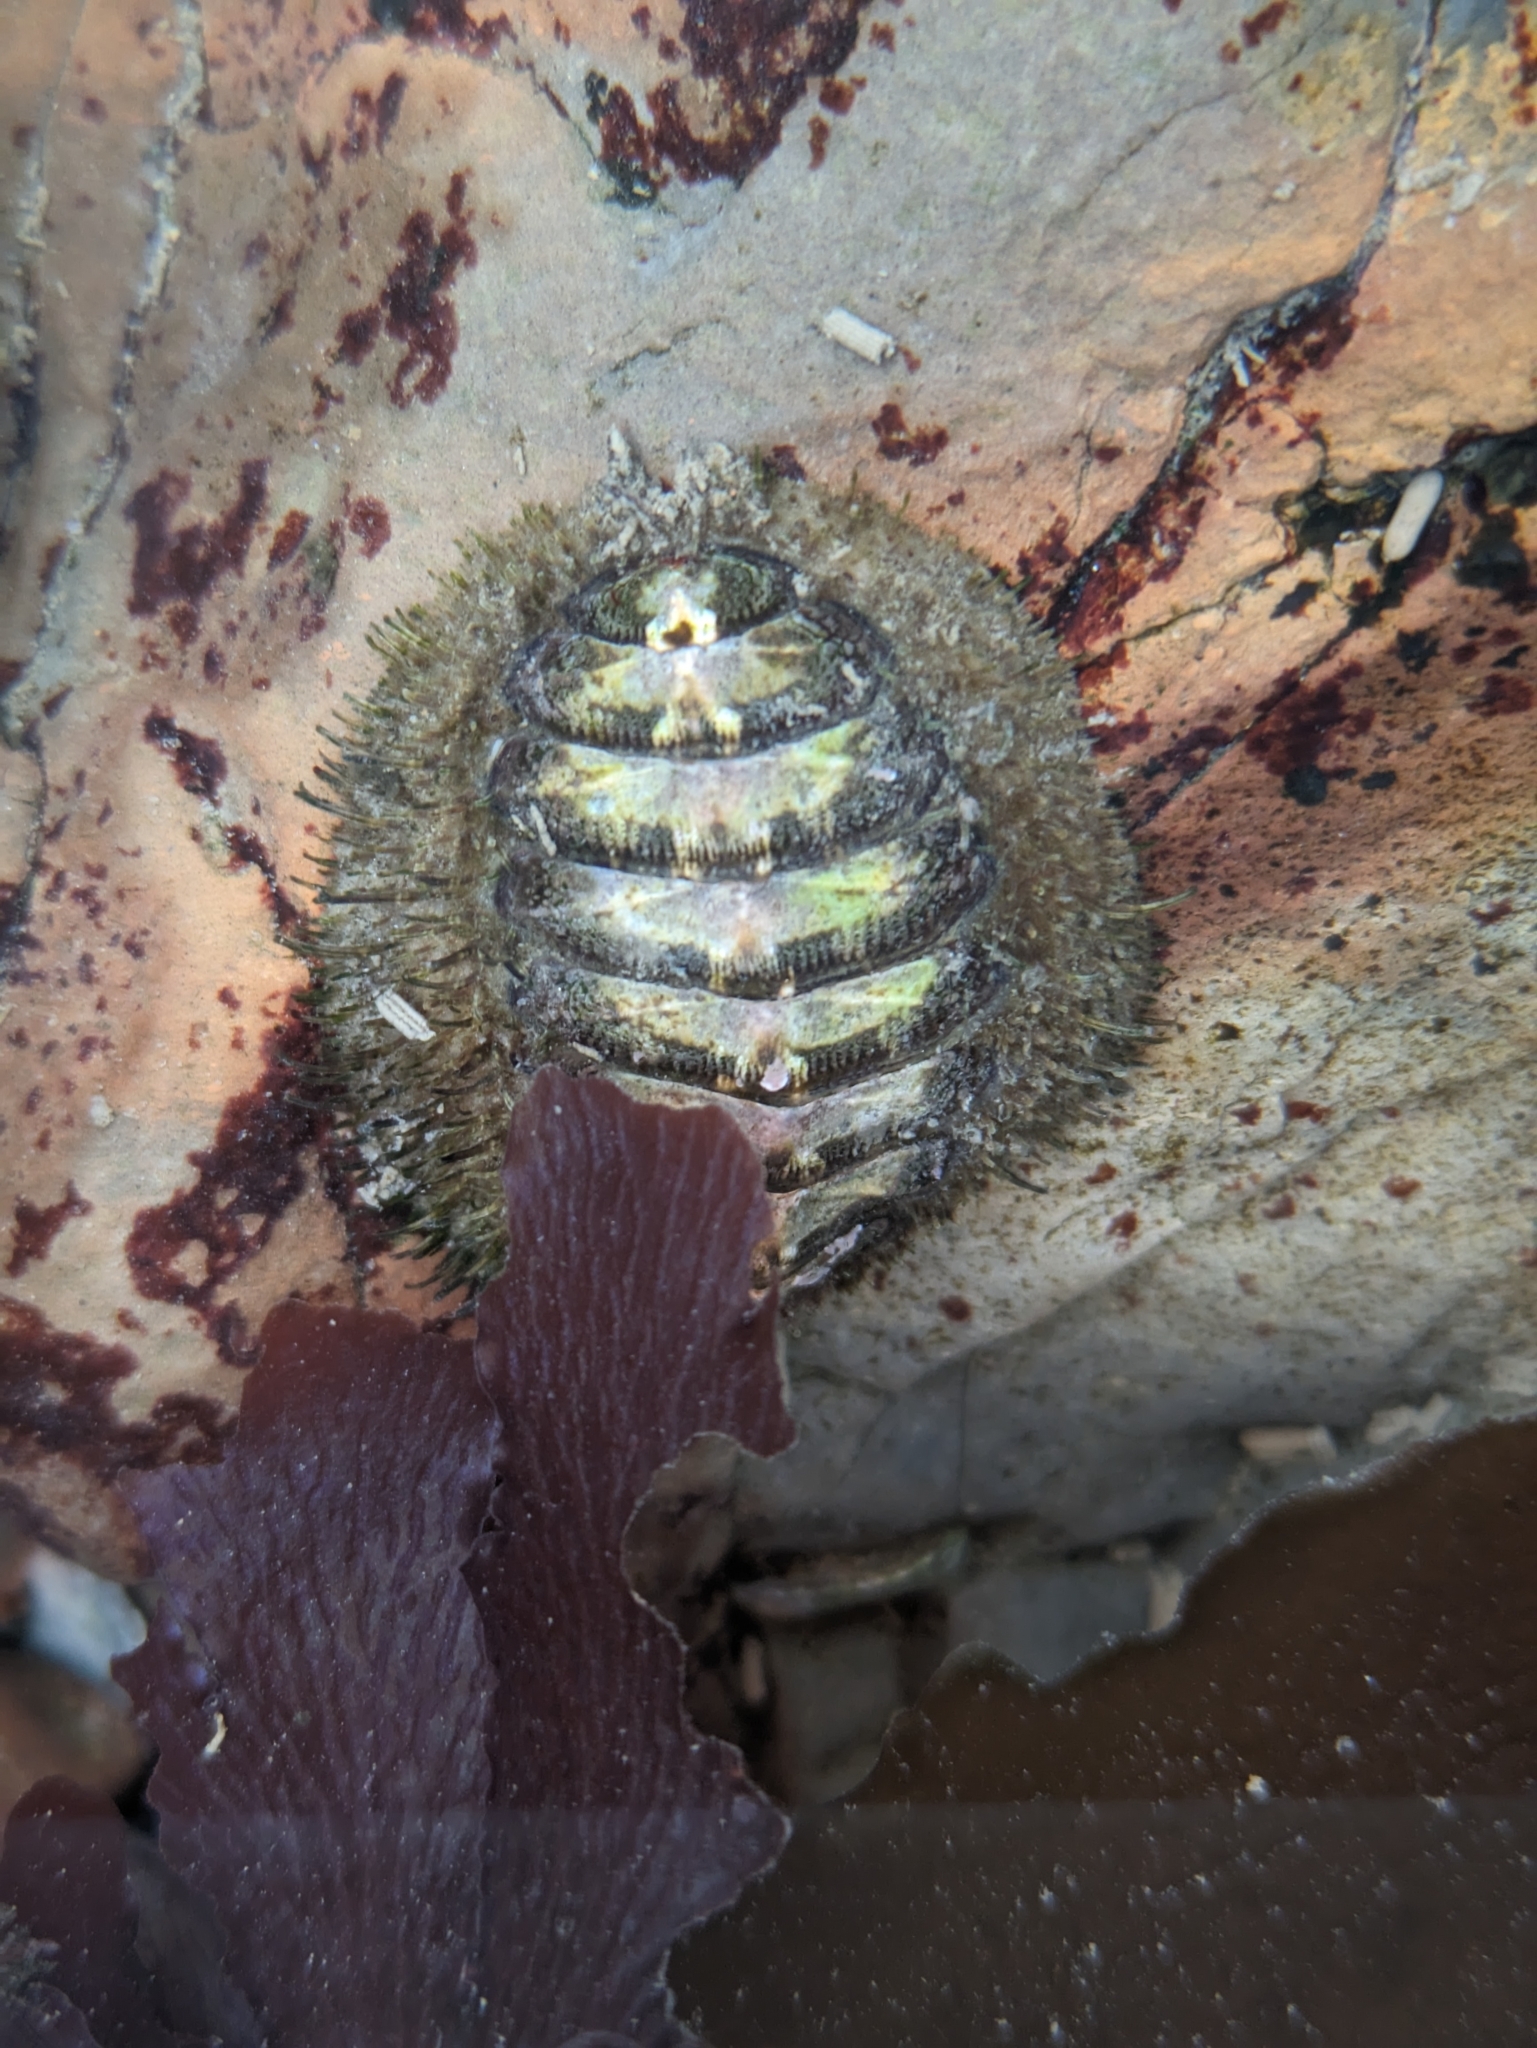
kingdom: Animalia
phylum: Mollusca
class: Polyplacophora
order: Chitonida
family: Mopaliidae
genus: Mopalia
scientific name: Mopalia muscosa
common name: Mossy chiton
